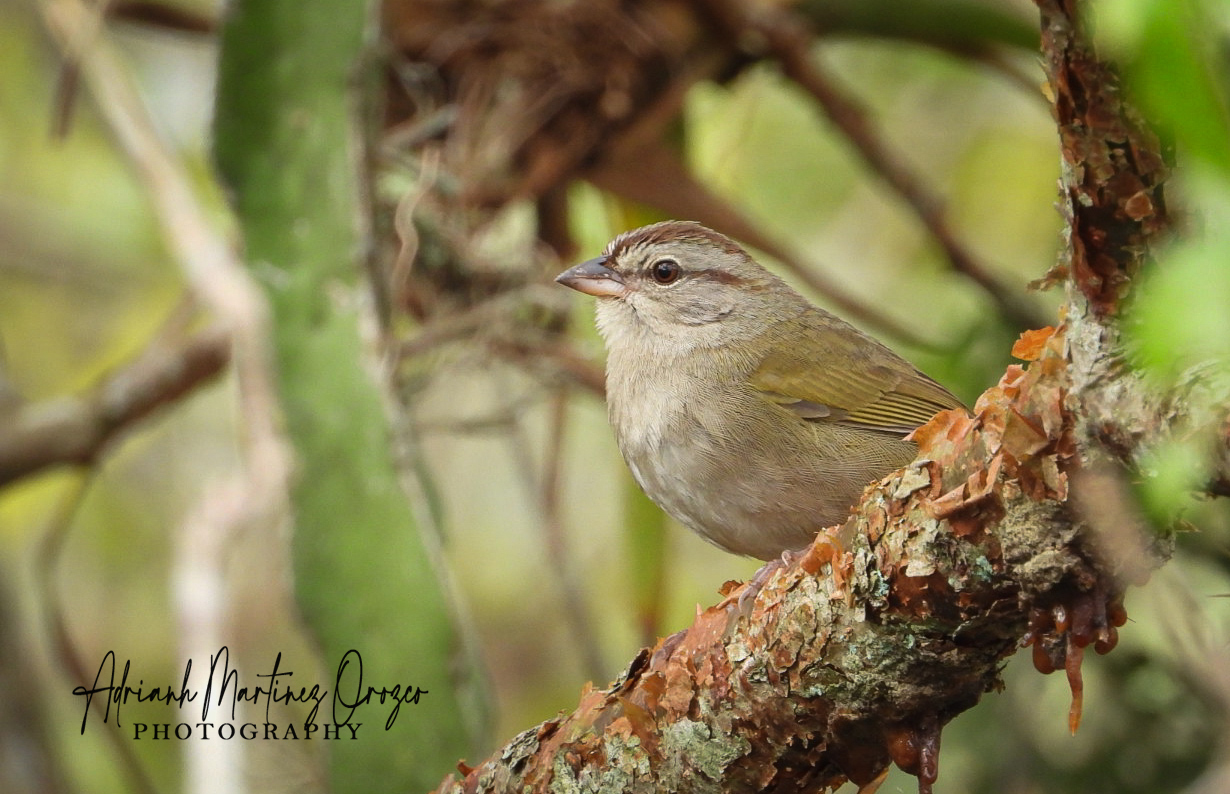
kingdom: Animalia
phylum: Chordata
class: Aves
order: Passeriformes
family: Passerellidae
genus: Arremonops
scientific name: Arremonops rufivirgatus
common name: Olive sparrow
